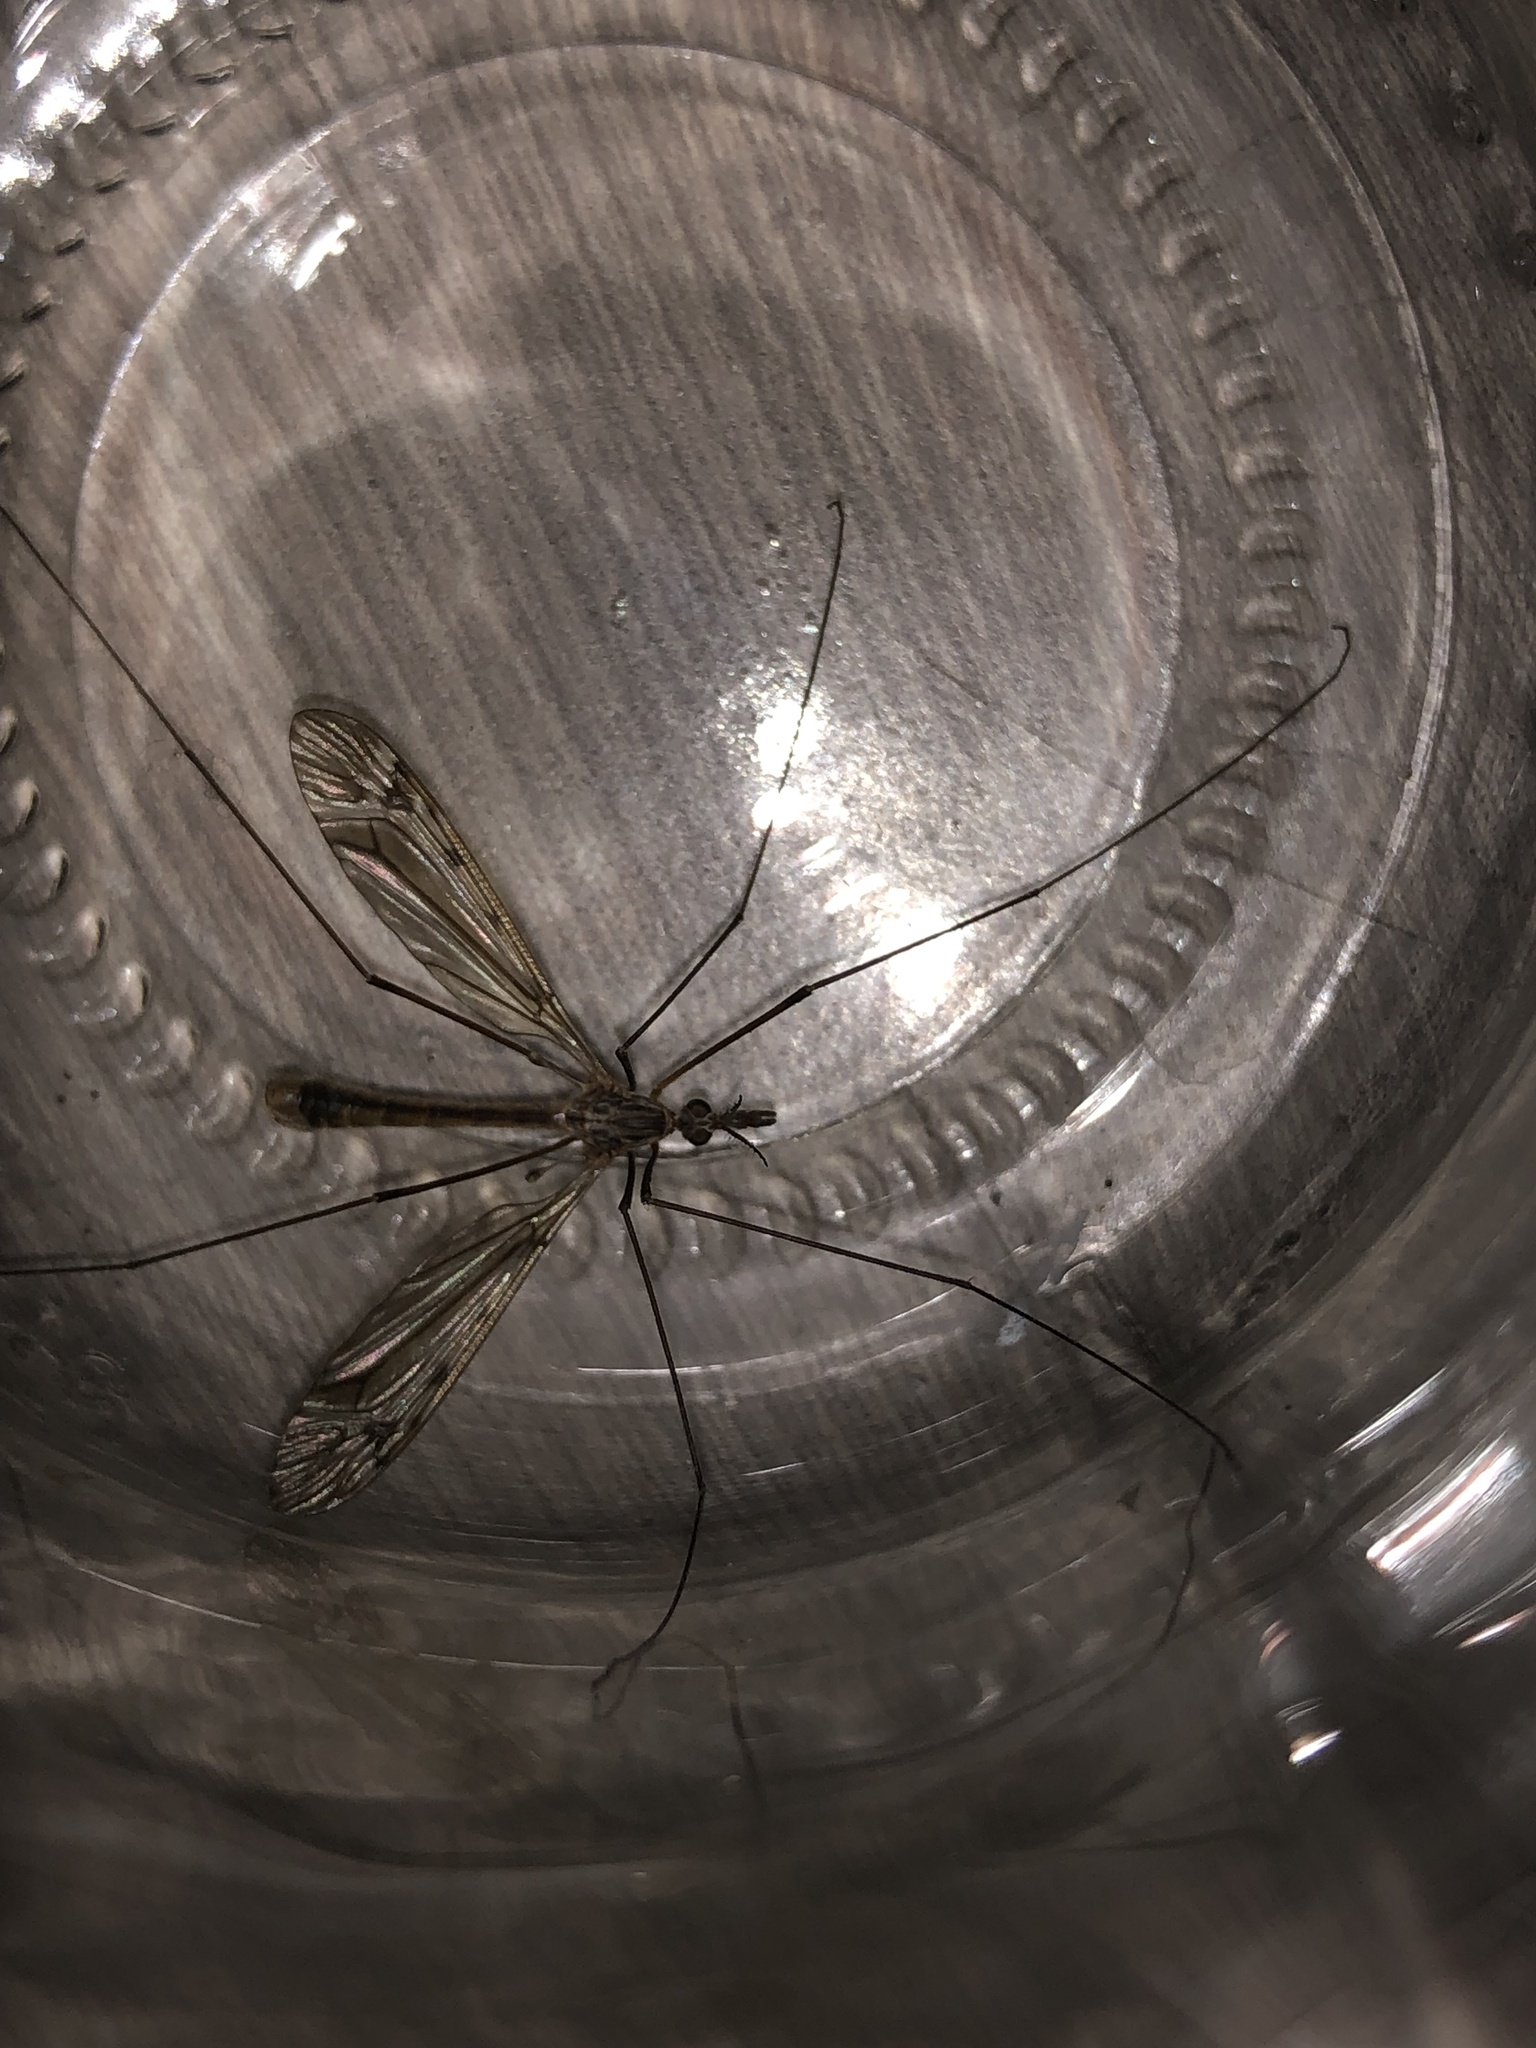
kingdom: Animalia
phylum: Arthropoda
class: Insecta
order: Diptera
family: Tipulidae
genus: Tipula
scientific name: Tipula austroandina
